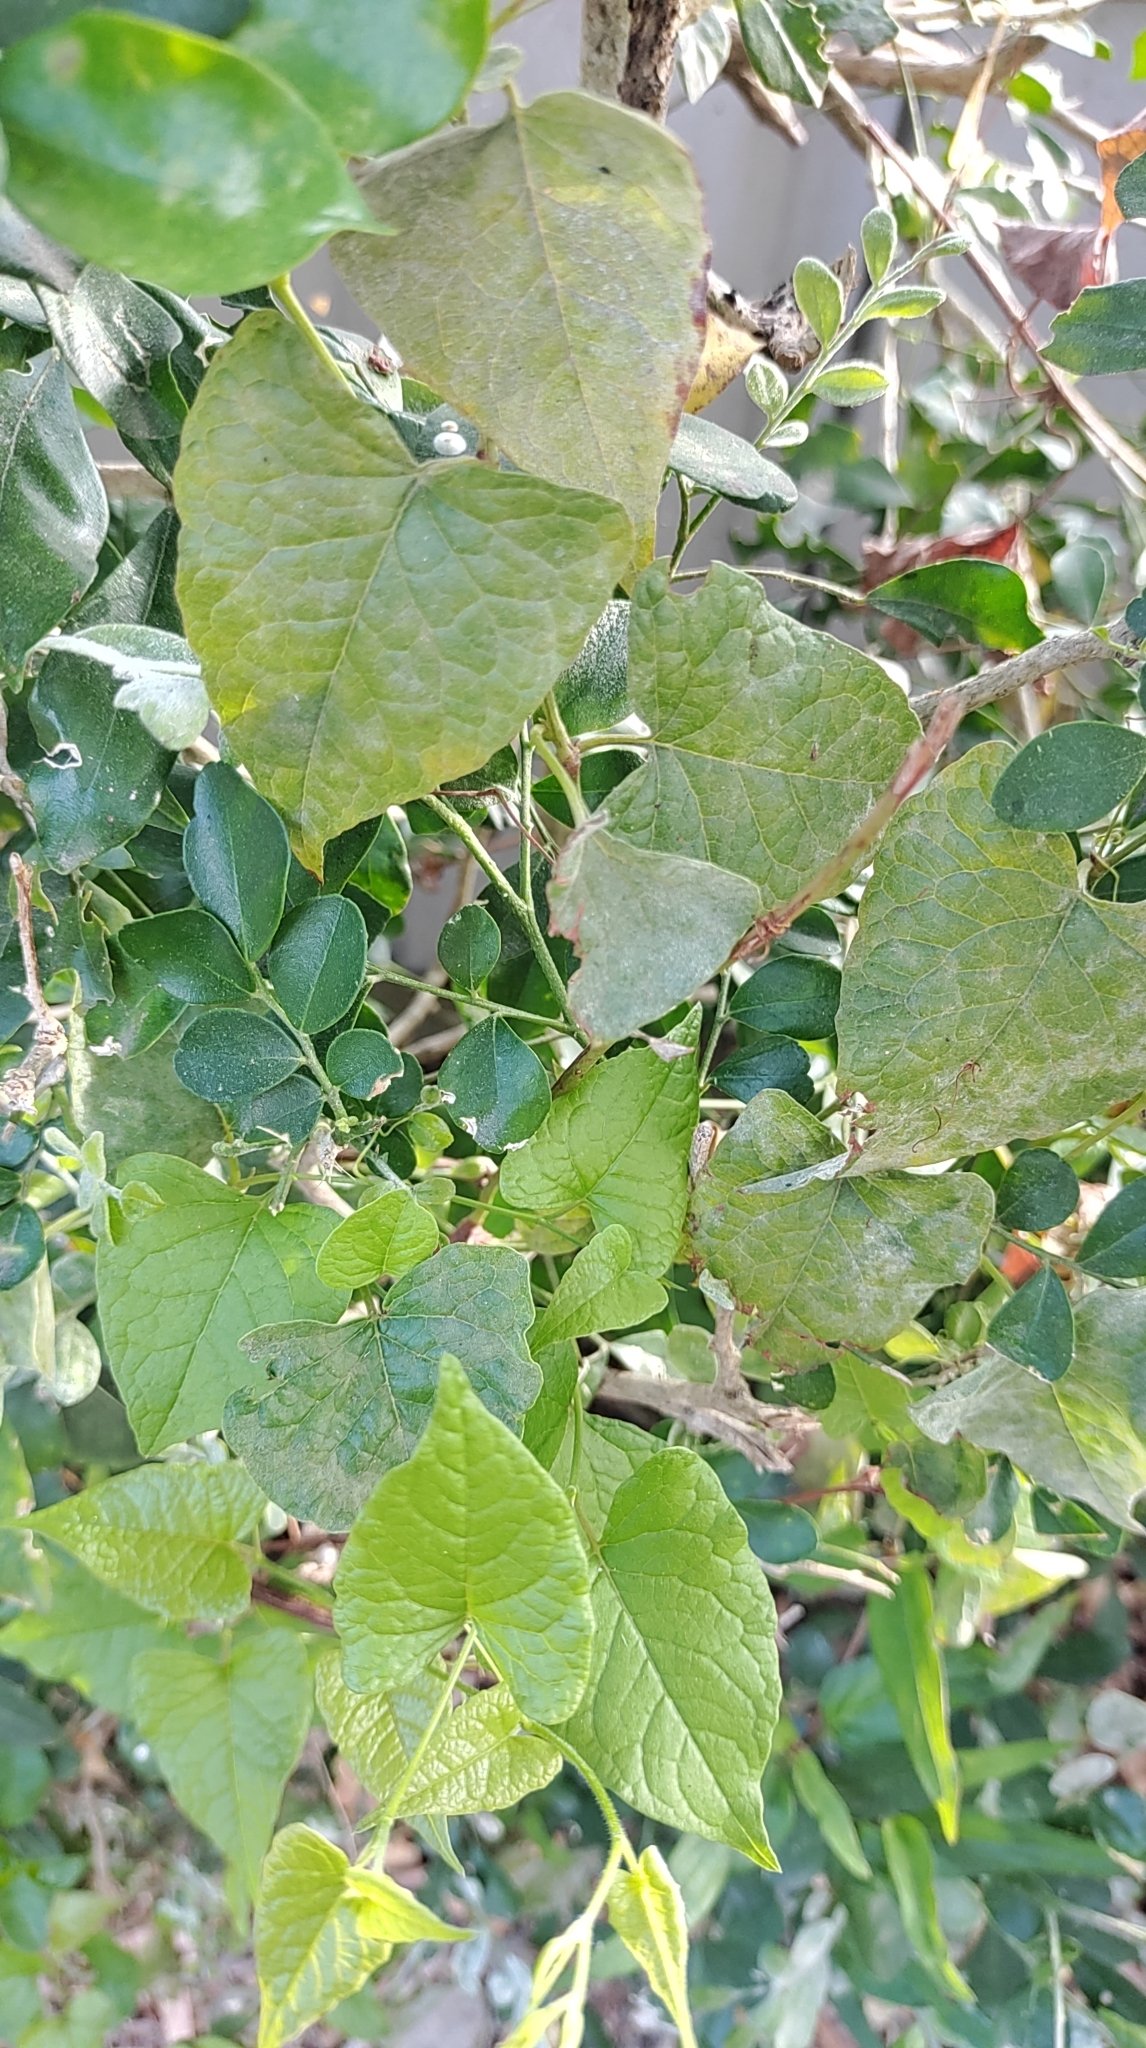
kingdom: Plantae
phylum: Tracheophyta
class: Magnoliopsida
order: Caryophyllales
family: Polygonaceae
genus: Antigonon
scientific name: Antigonon leptopus
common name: Coral vine
